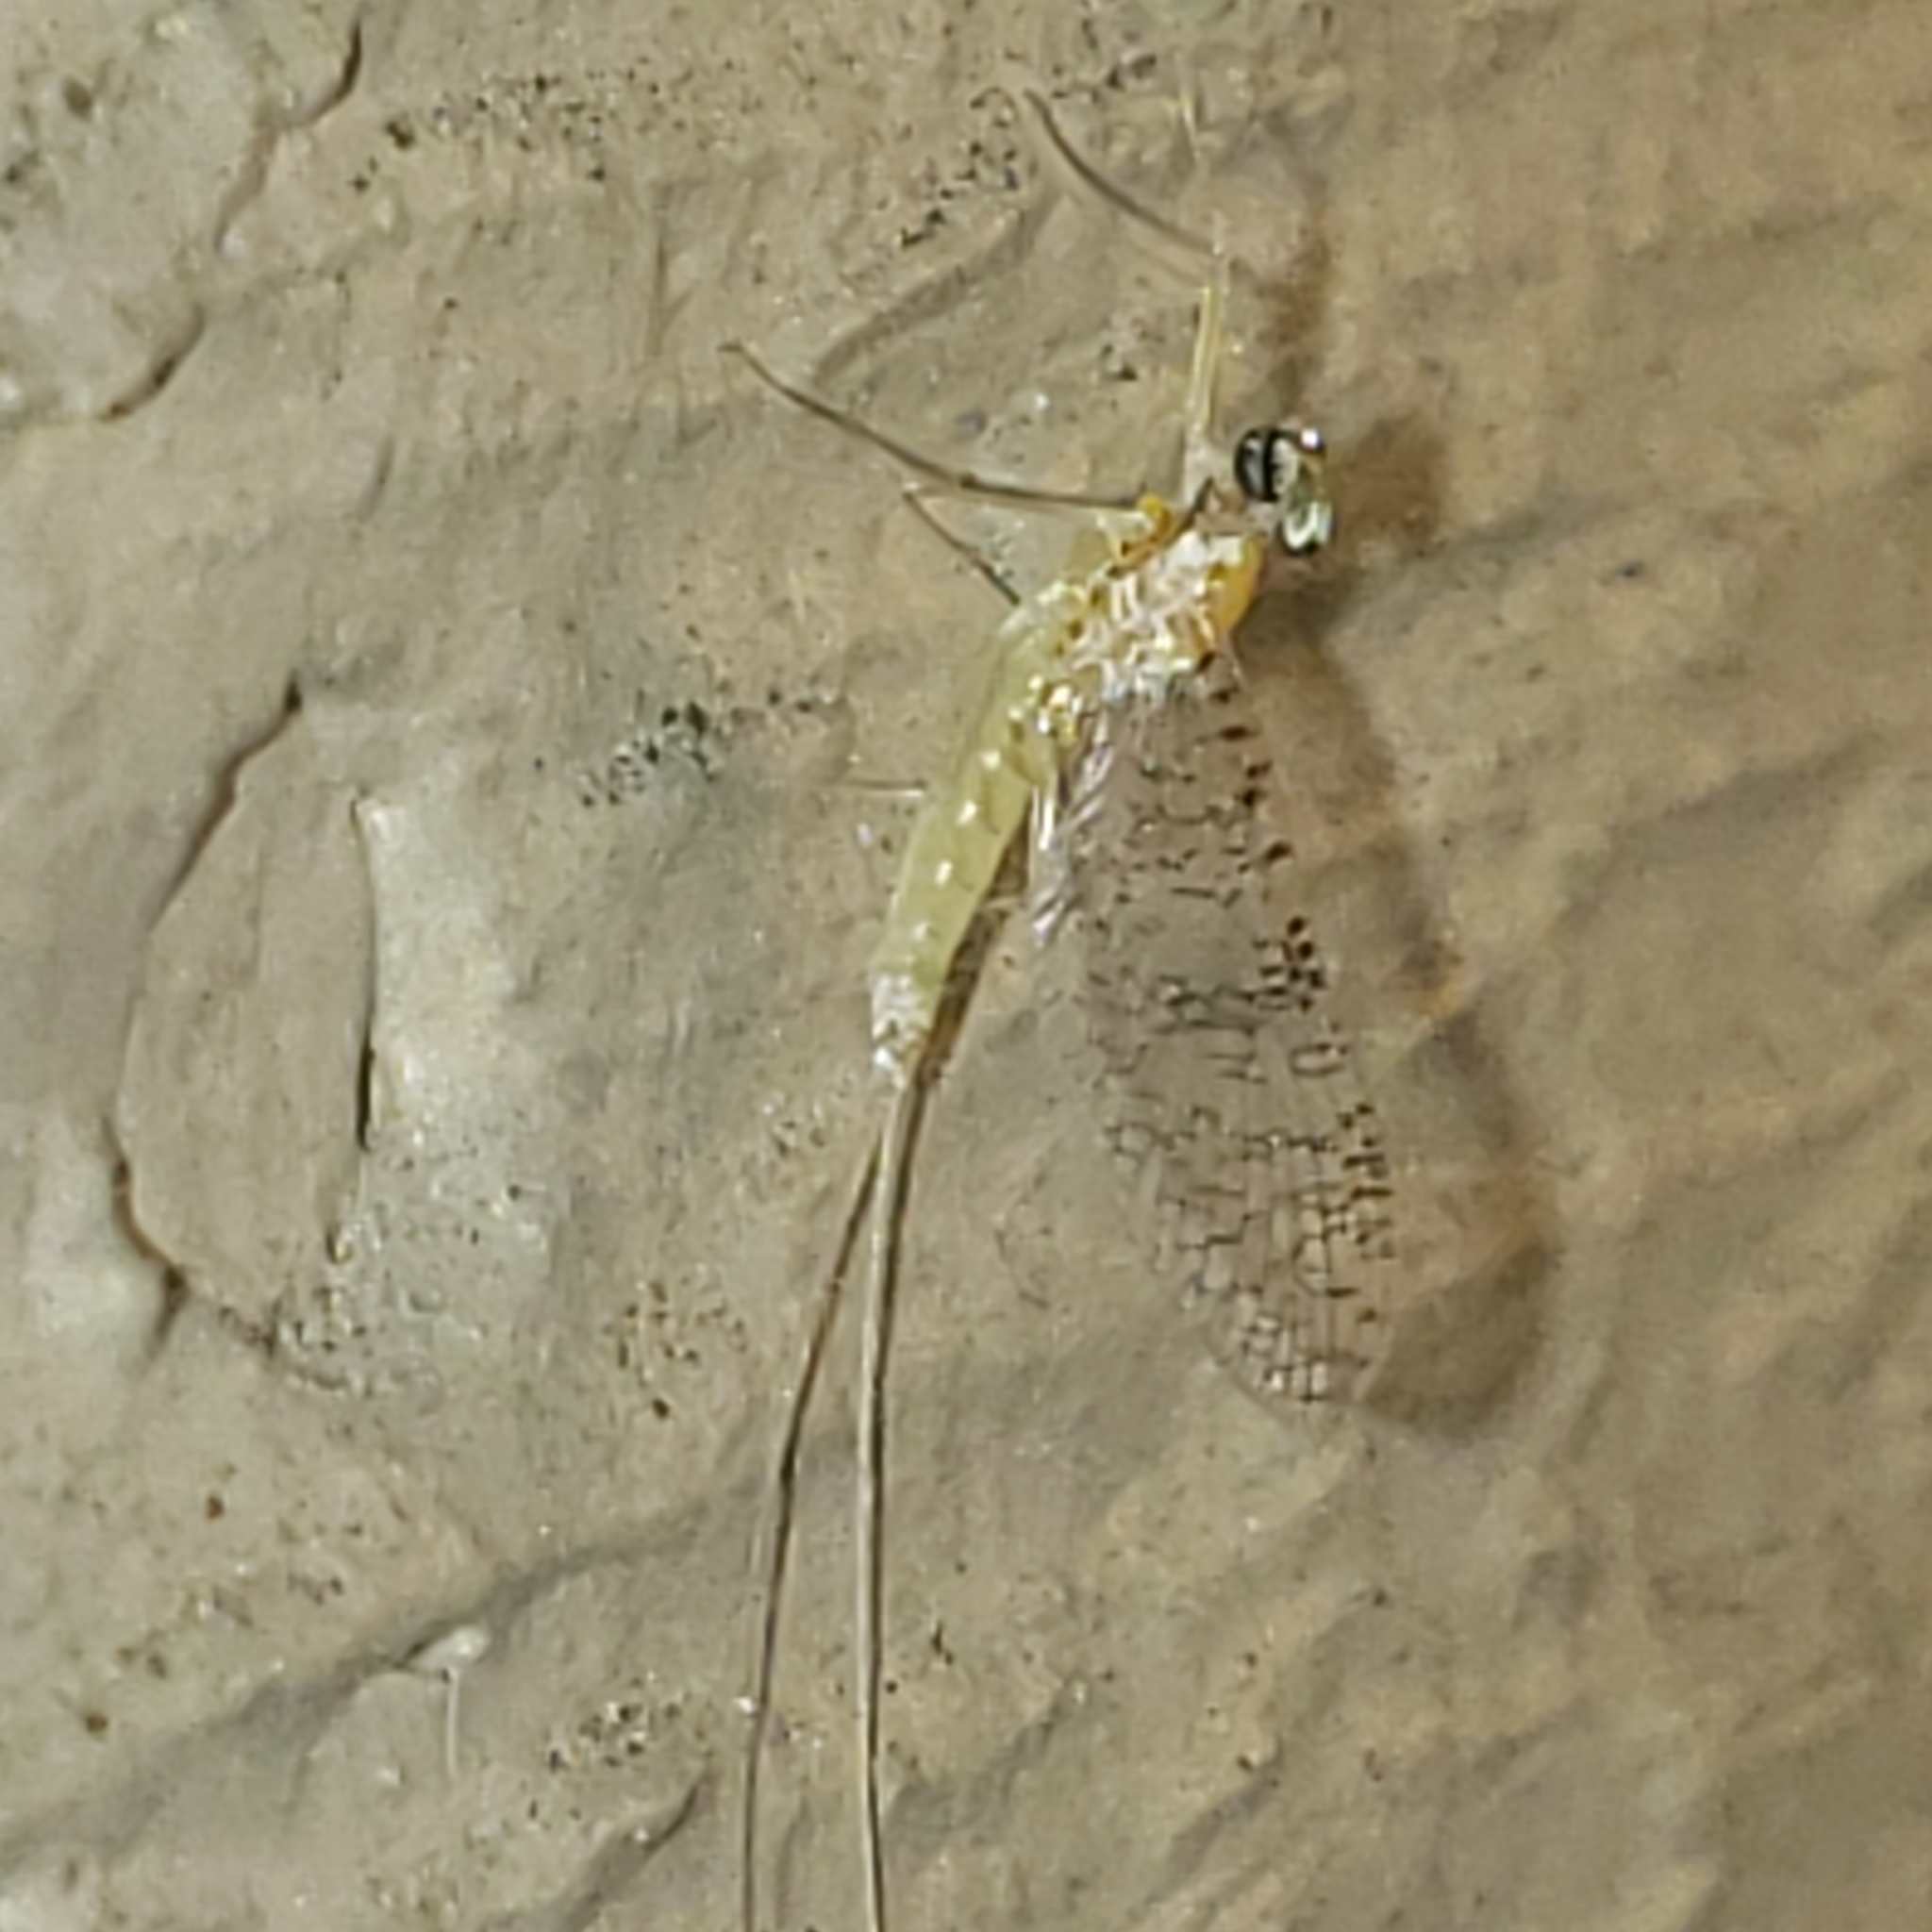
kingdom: Animalia
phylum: Arthropoda
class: Insecta
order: Ephemeroptera
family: Heptageniidae
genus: Leucrocuta
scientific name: Leucrocuta juno
